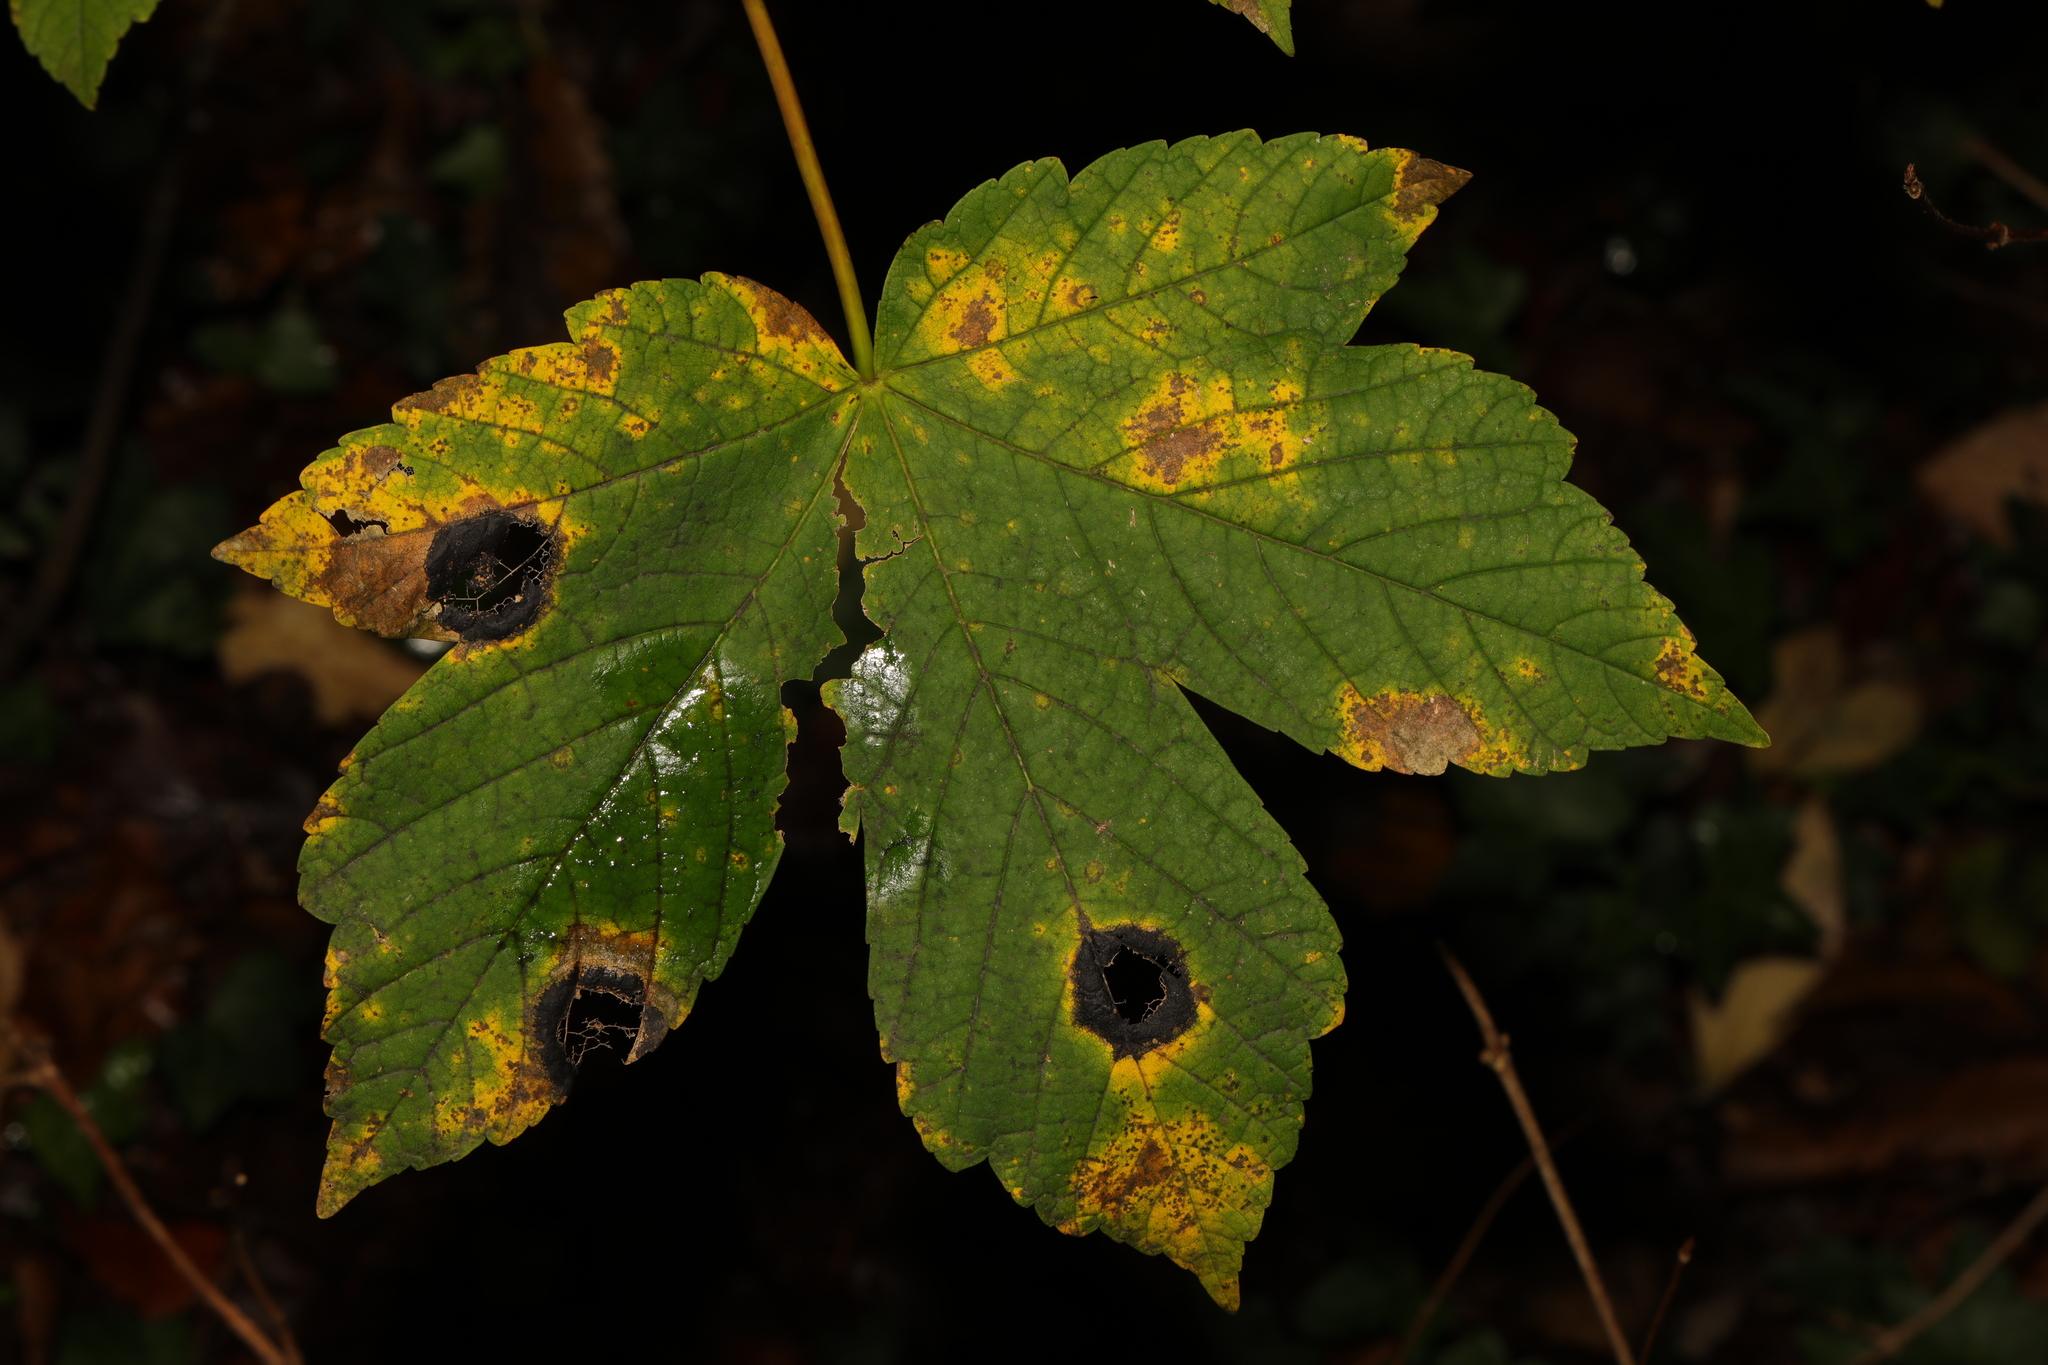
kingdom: Fungi
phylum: Ascomycota
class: Leotiomycetes
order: Rhytismatales
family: Rhytismataceae
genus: Rhytisma
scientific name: Rhytisma acerinum
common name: European tar spot
